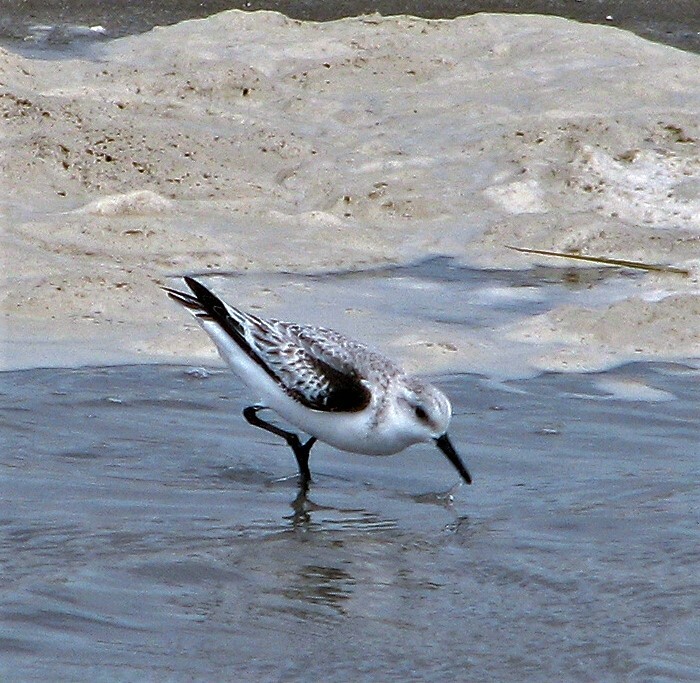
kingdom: Animalia
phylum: Chordata
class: Aves
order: Charadriiformes
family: Scolopacidae
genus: Calidris
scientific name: Calidris alba
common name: Sanderling
